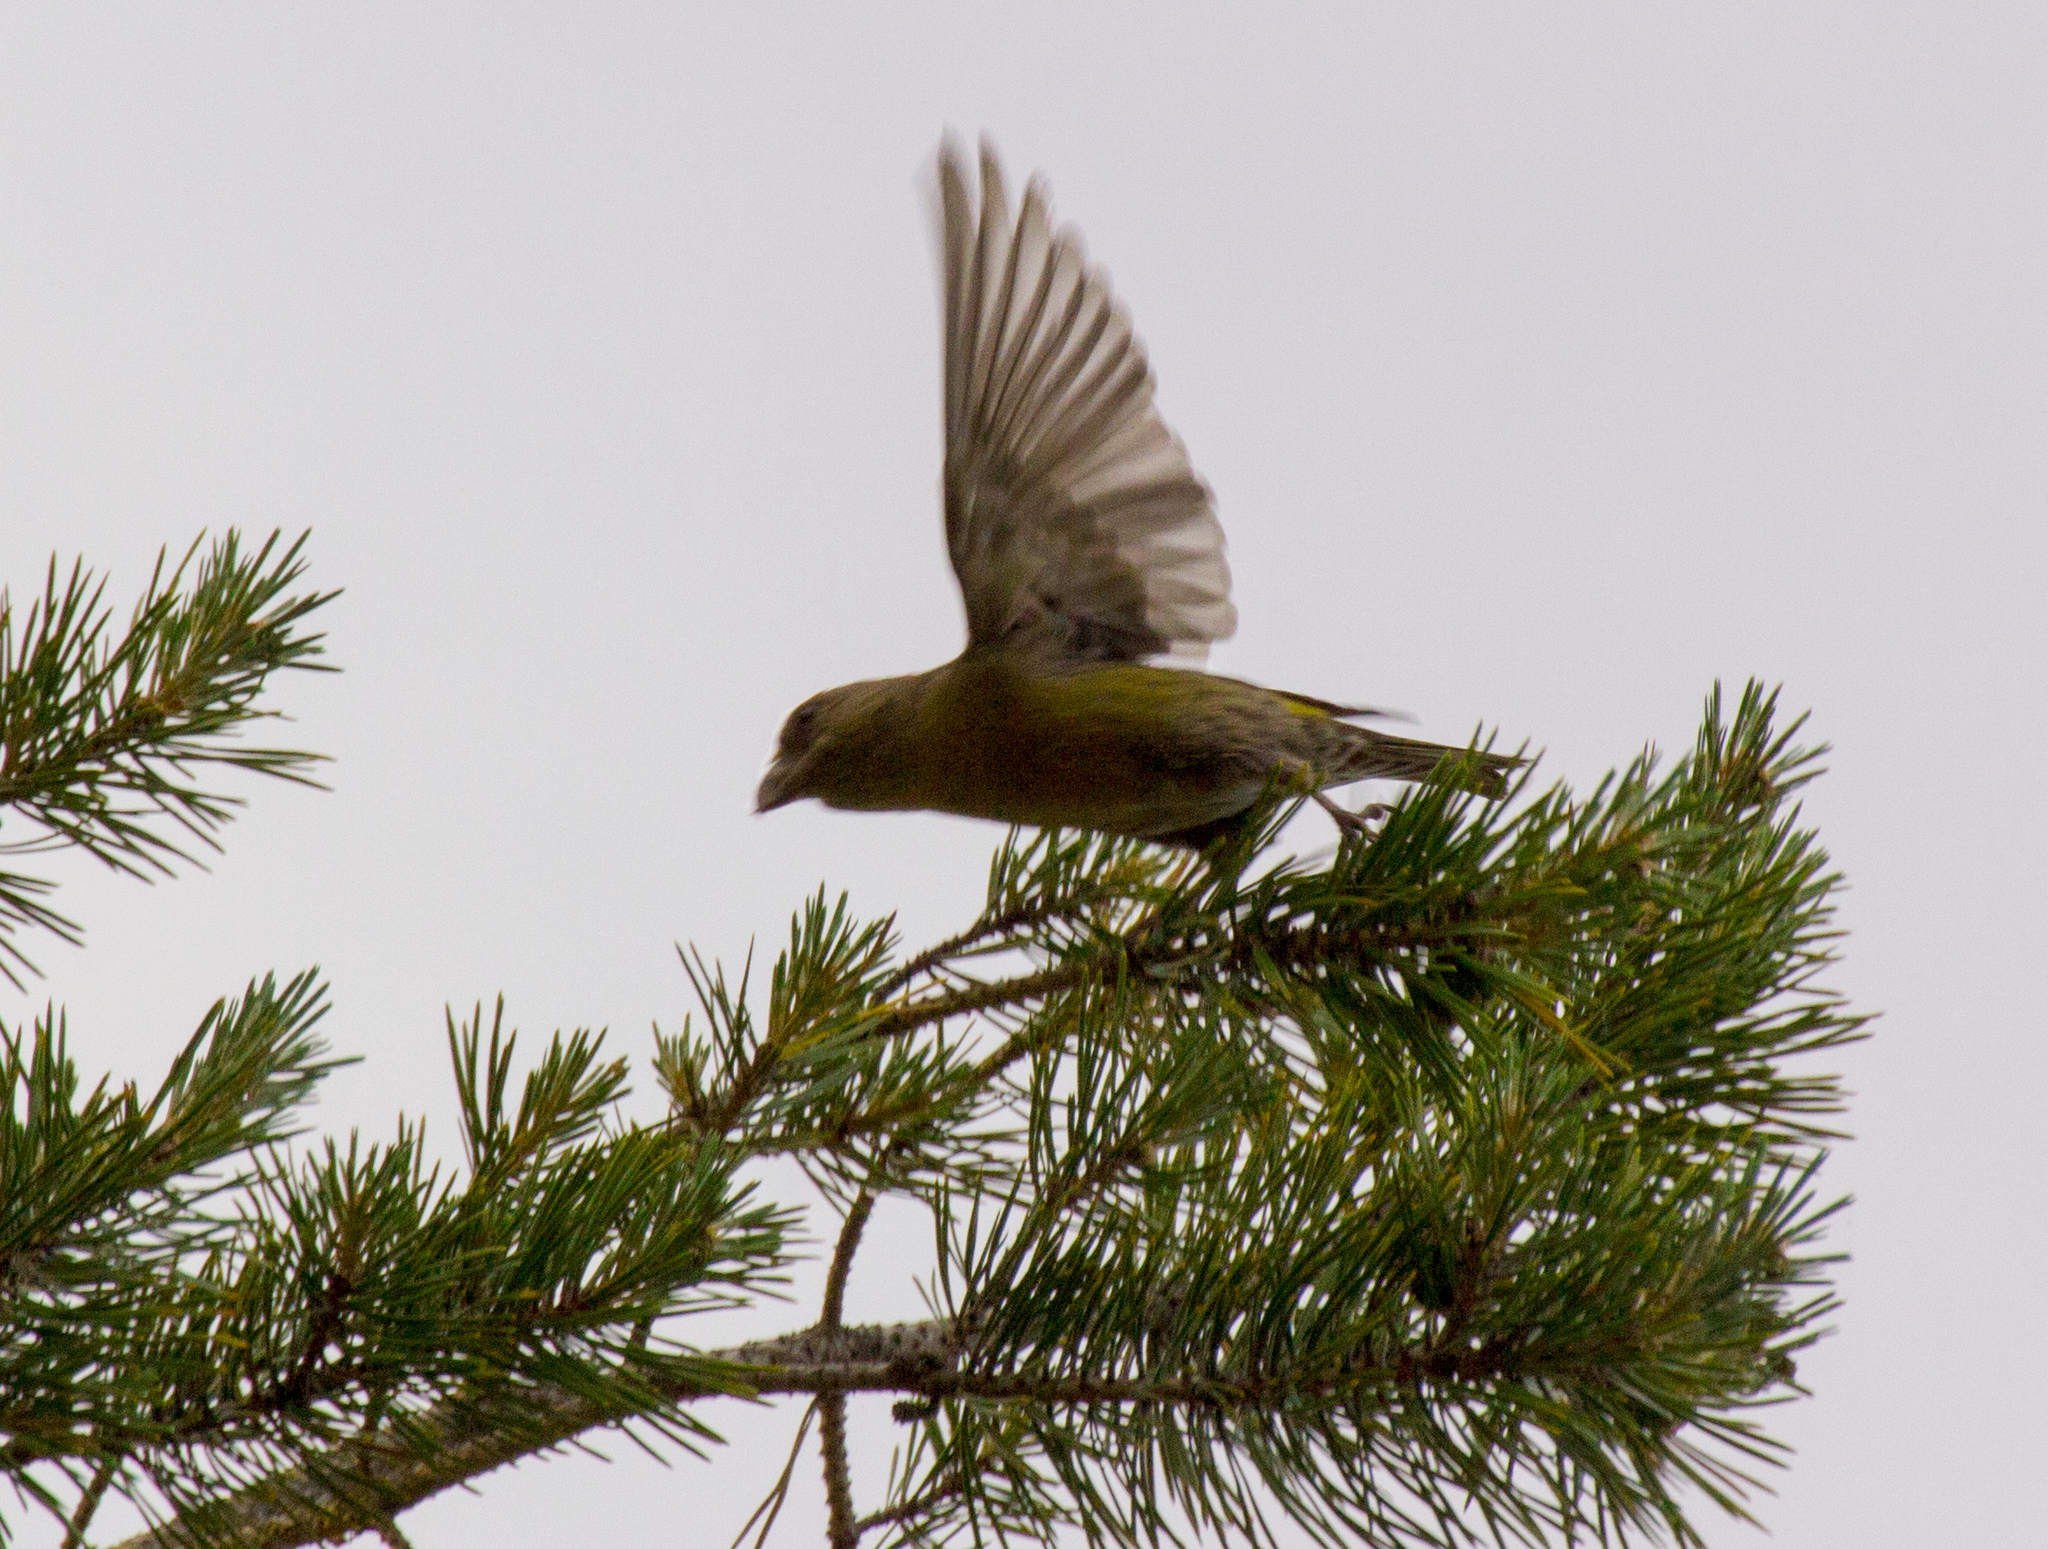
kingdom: Animalia
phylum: Chordata
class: Aves
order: Passeriformes
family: Fringillidae
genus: Loxia
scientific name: Loxia curvirostra
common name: Red crossbill
